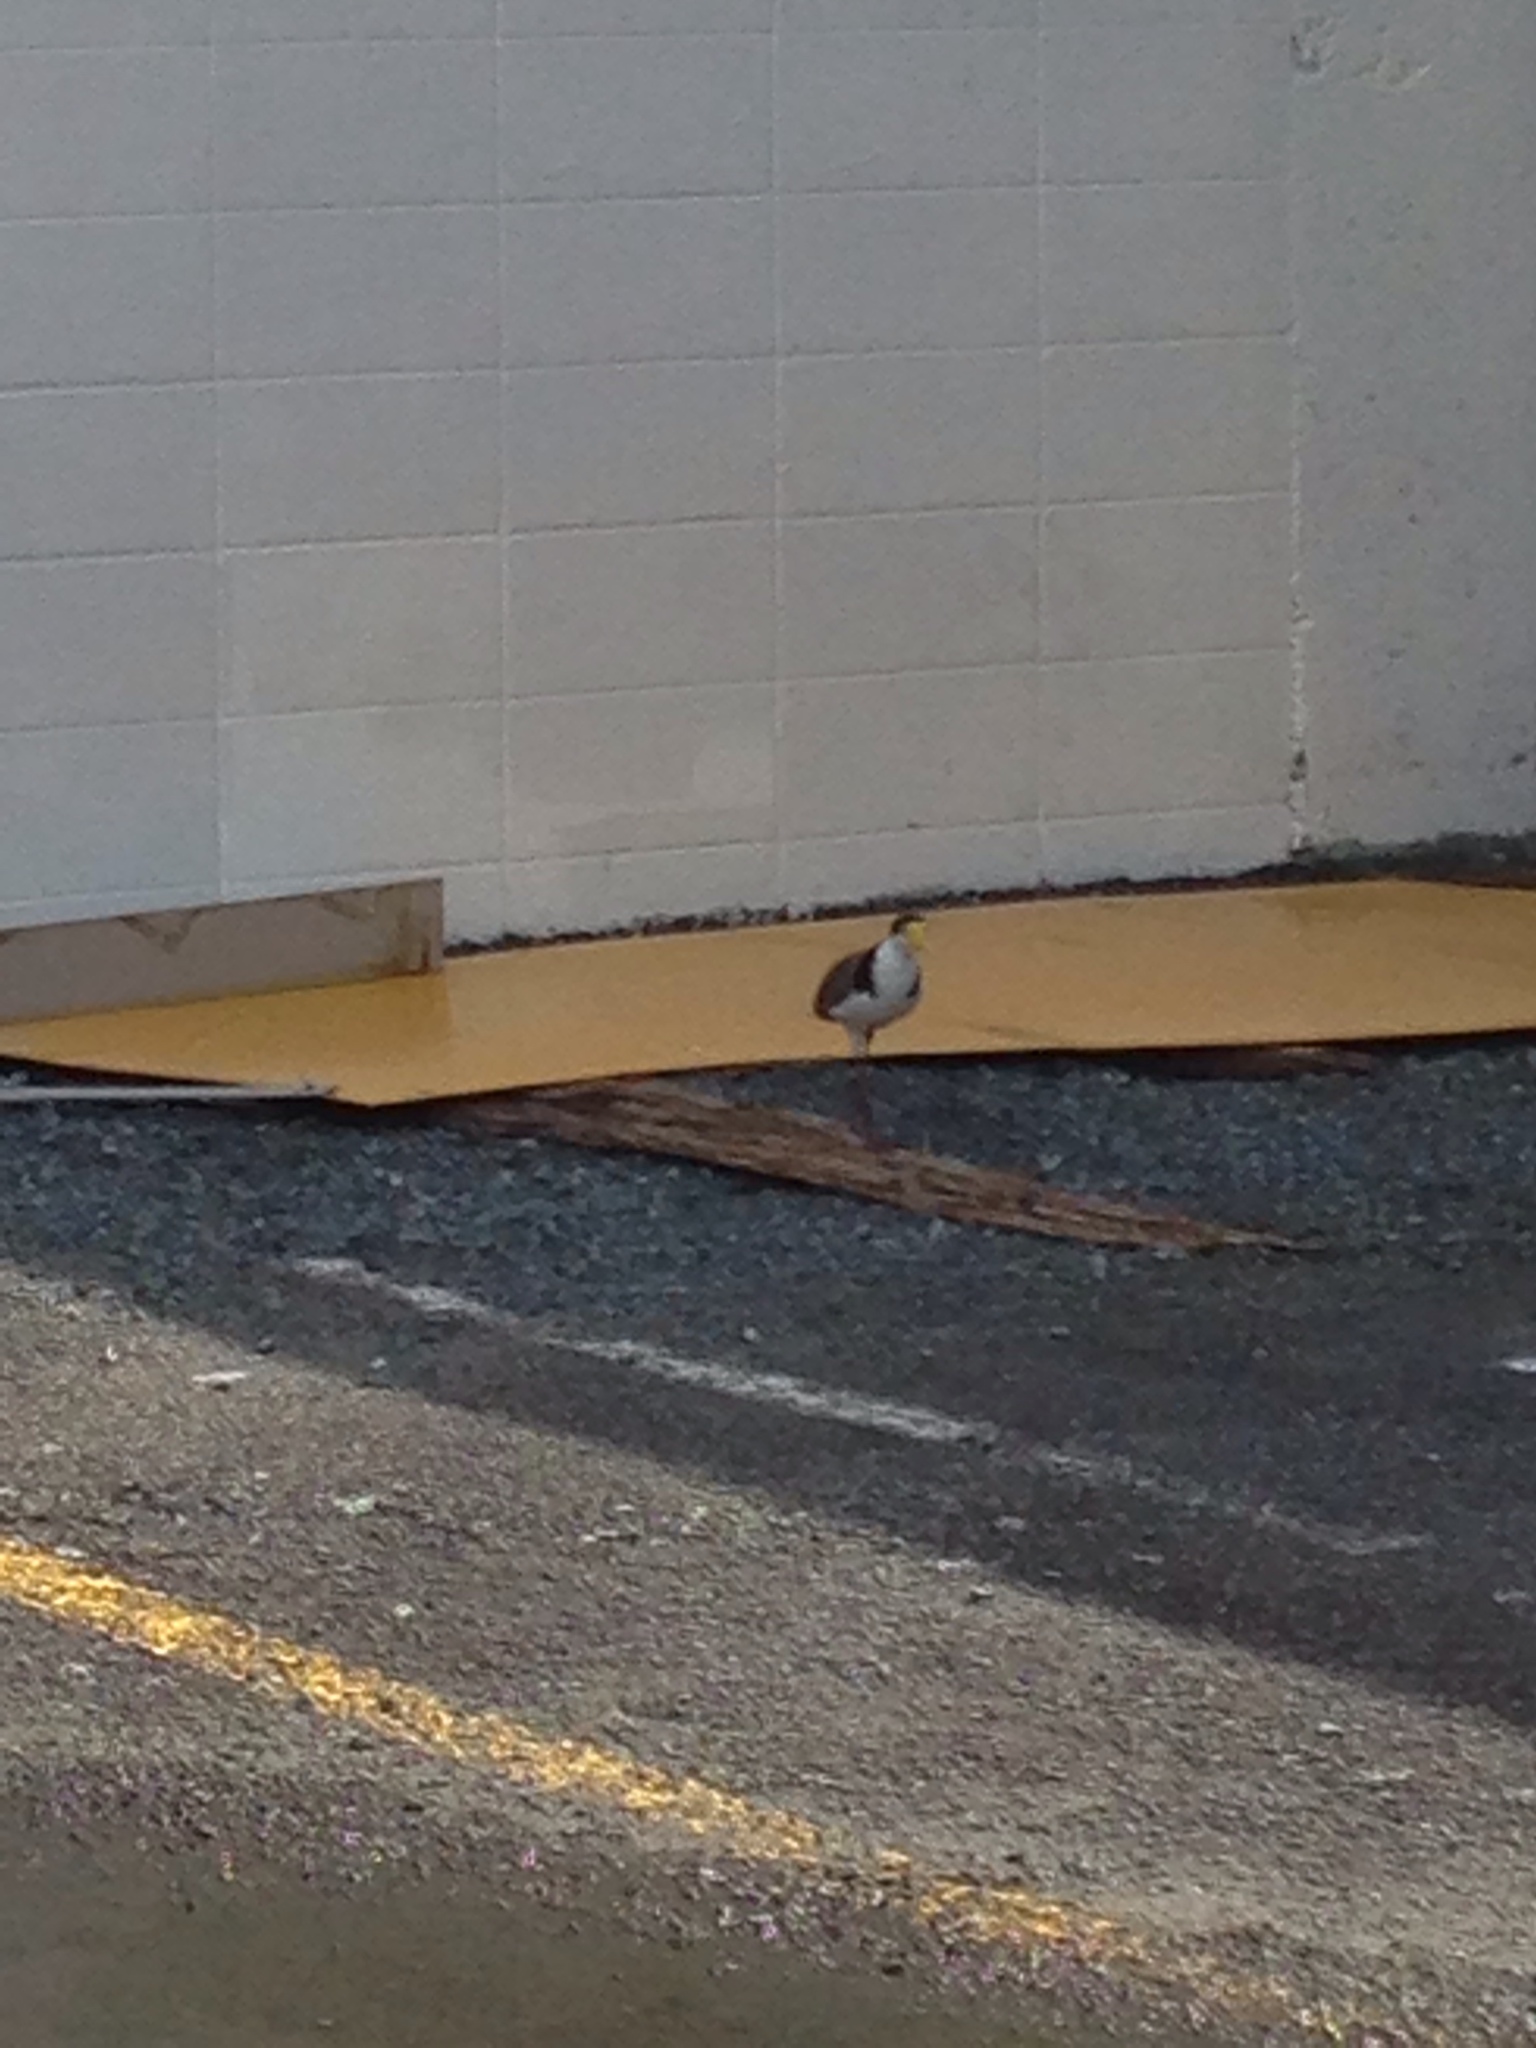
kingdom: Animalia
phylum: Chordata
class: Aves
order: Charadriiformes
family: Charadriidae
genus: Vanellus
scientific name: Vanellus miles
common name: Masked lapwing
